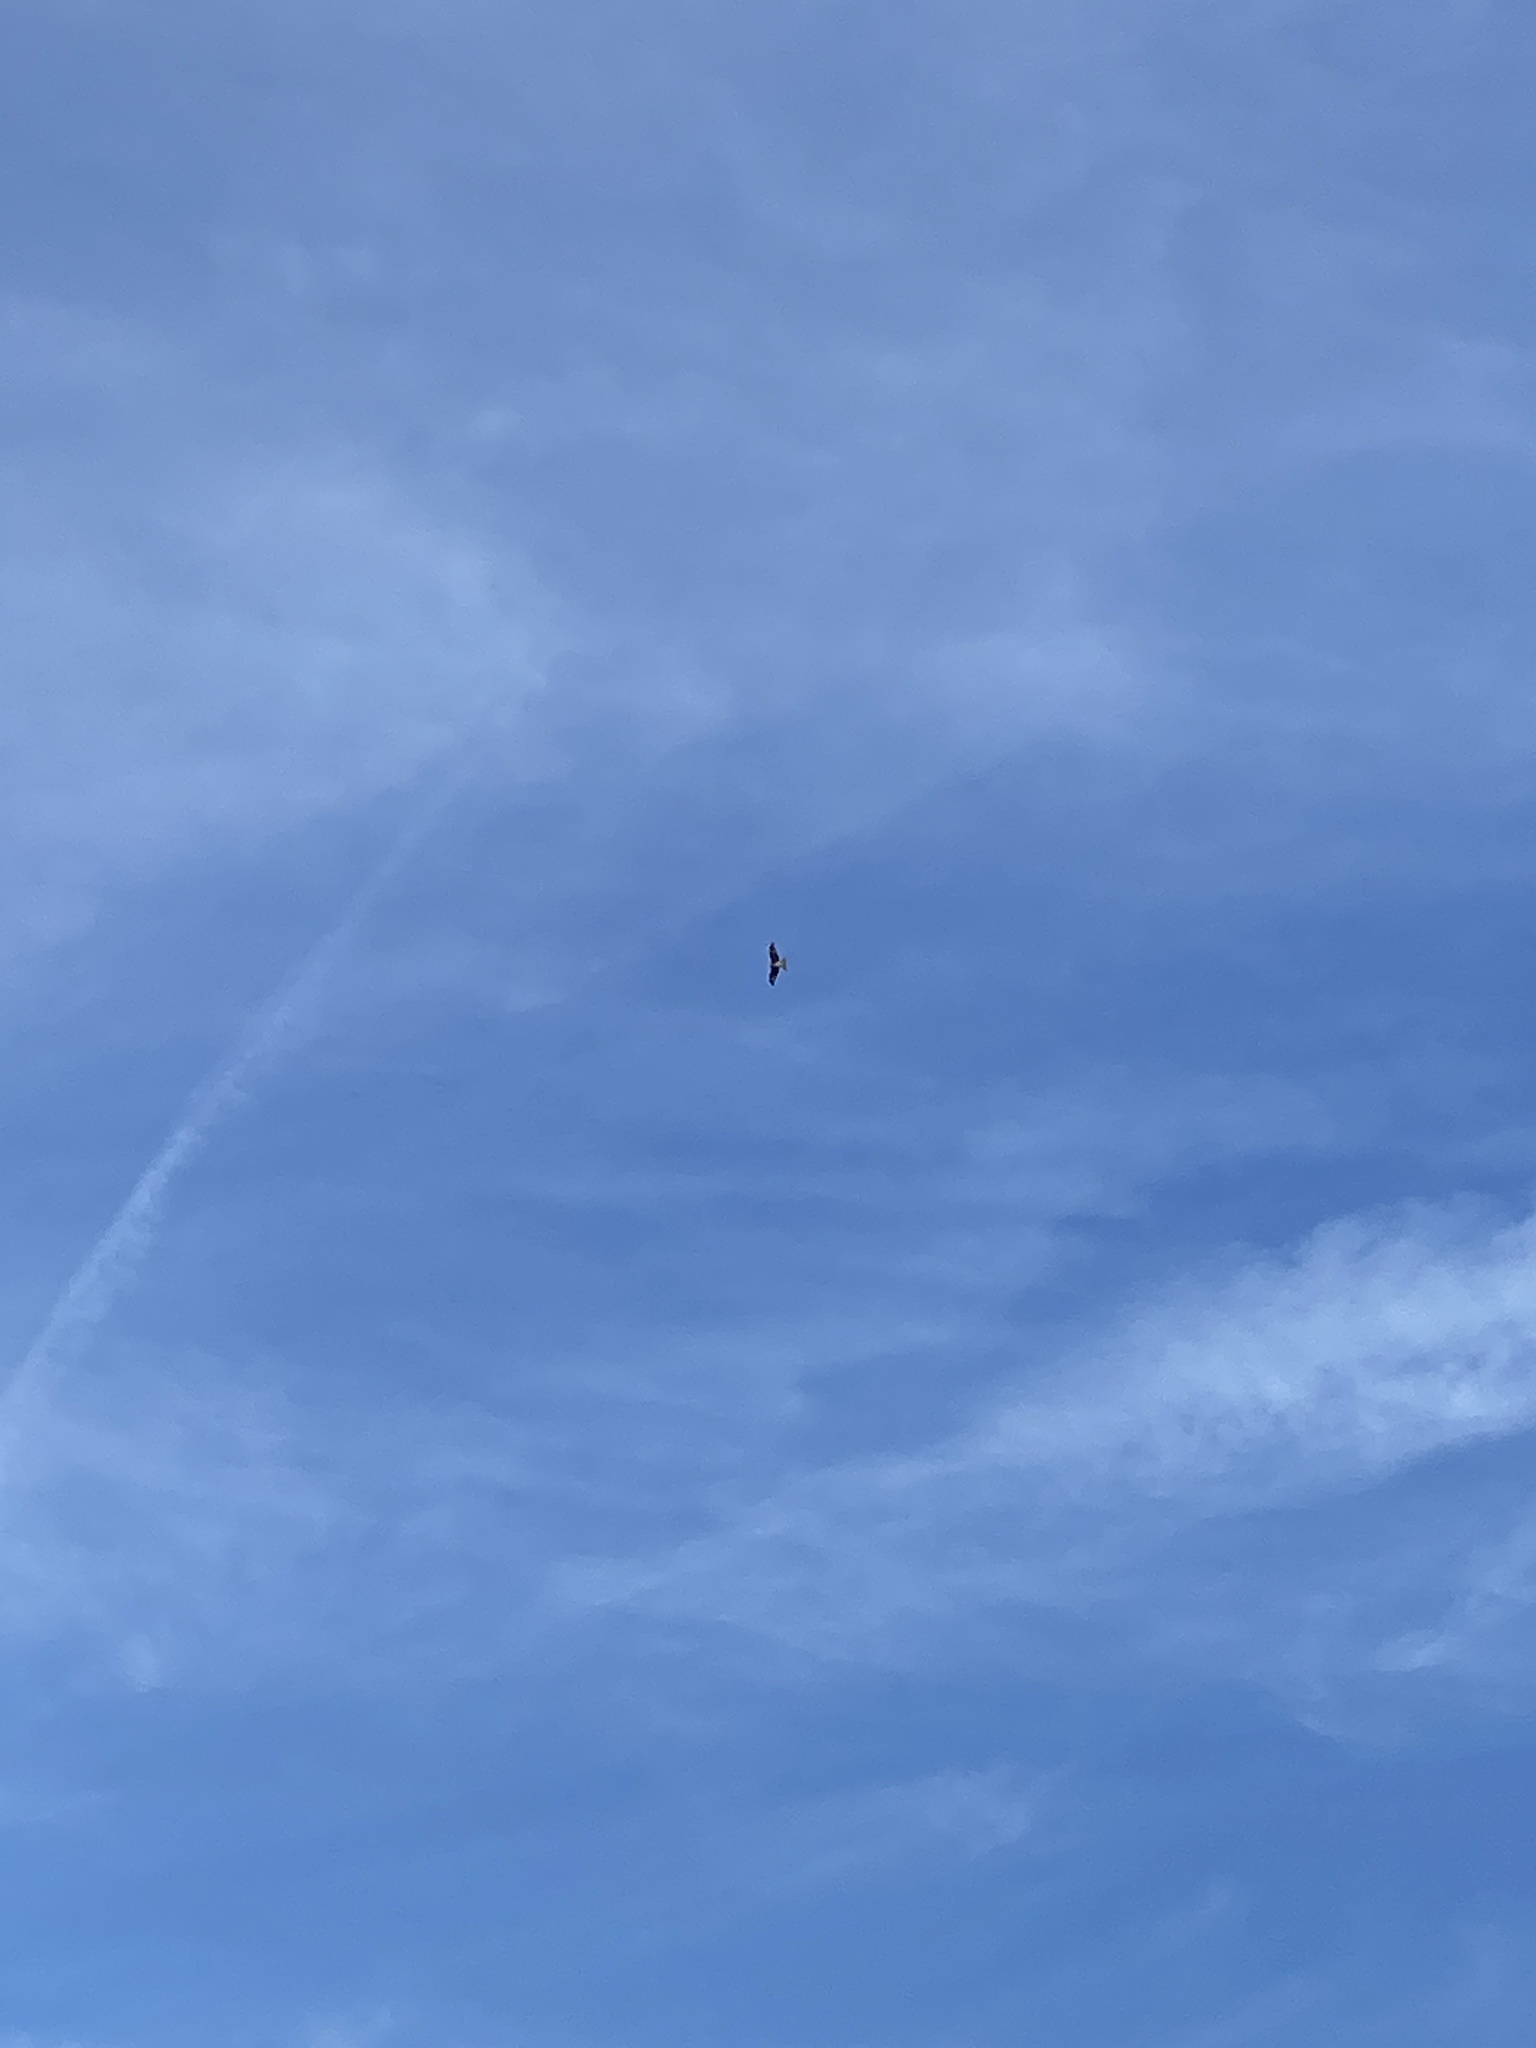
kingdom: Animalia
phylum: Chordata
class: Aves
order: Accipitriformes
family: Accipitridae
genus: Milvus
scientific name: Milvus milvus
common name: Red kite
